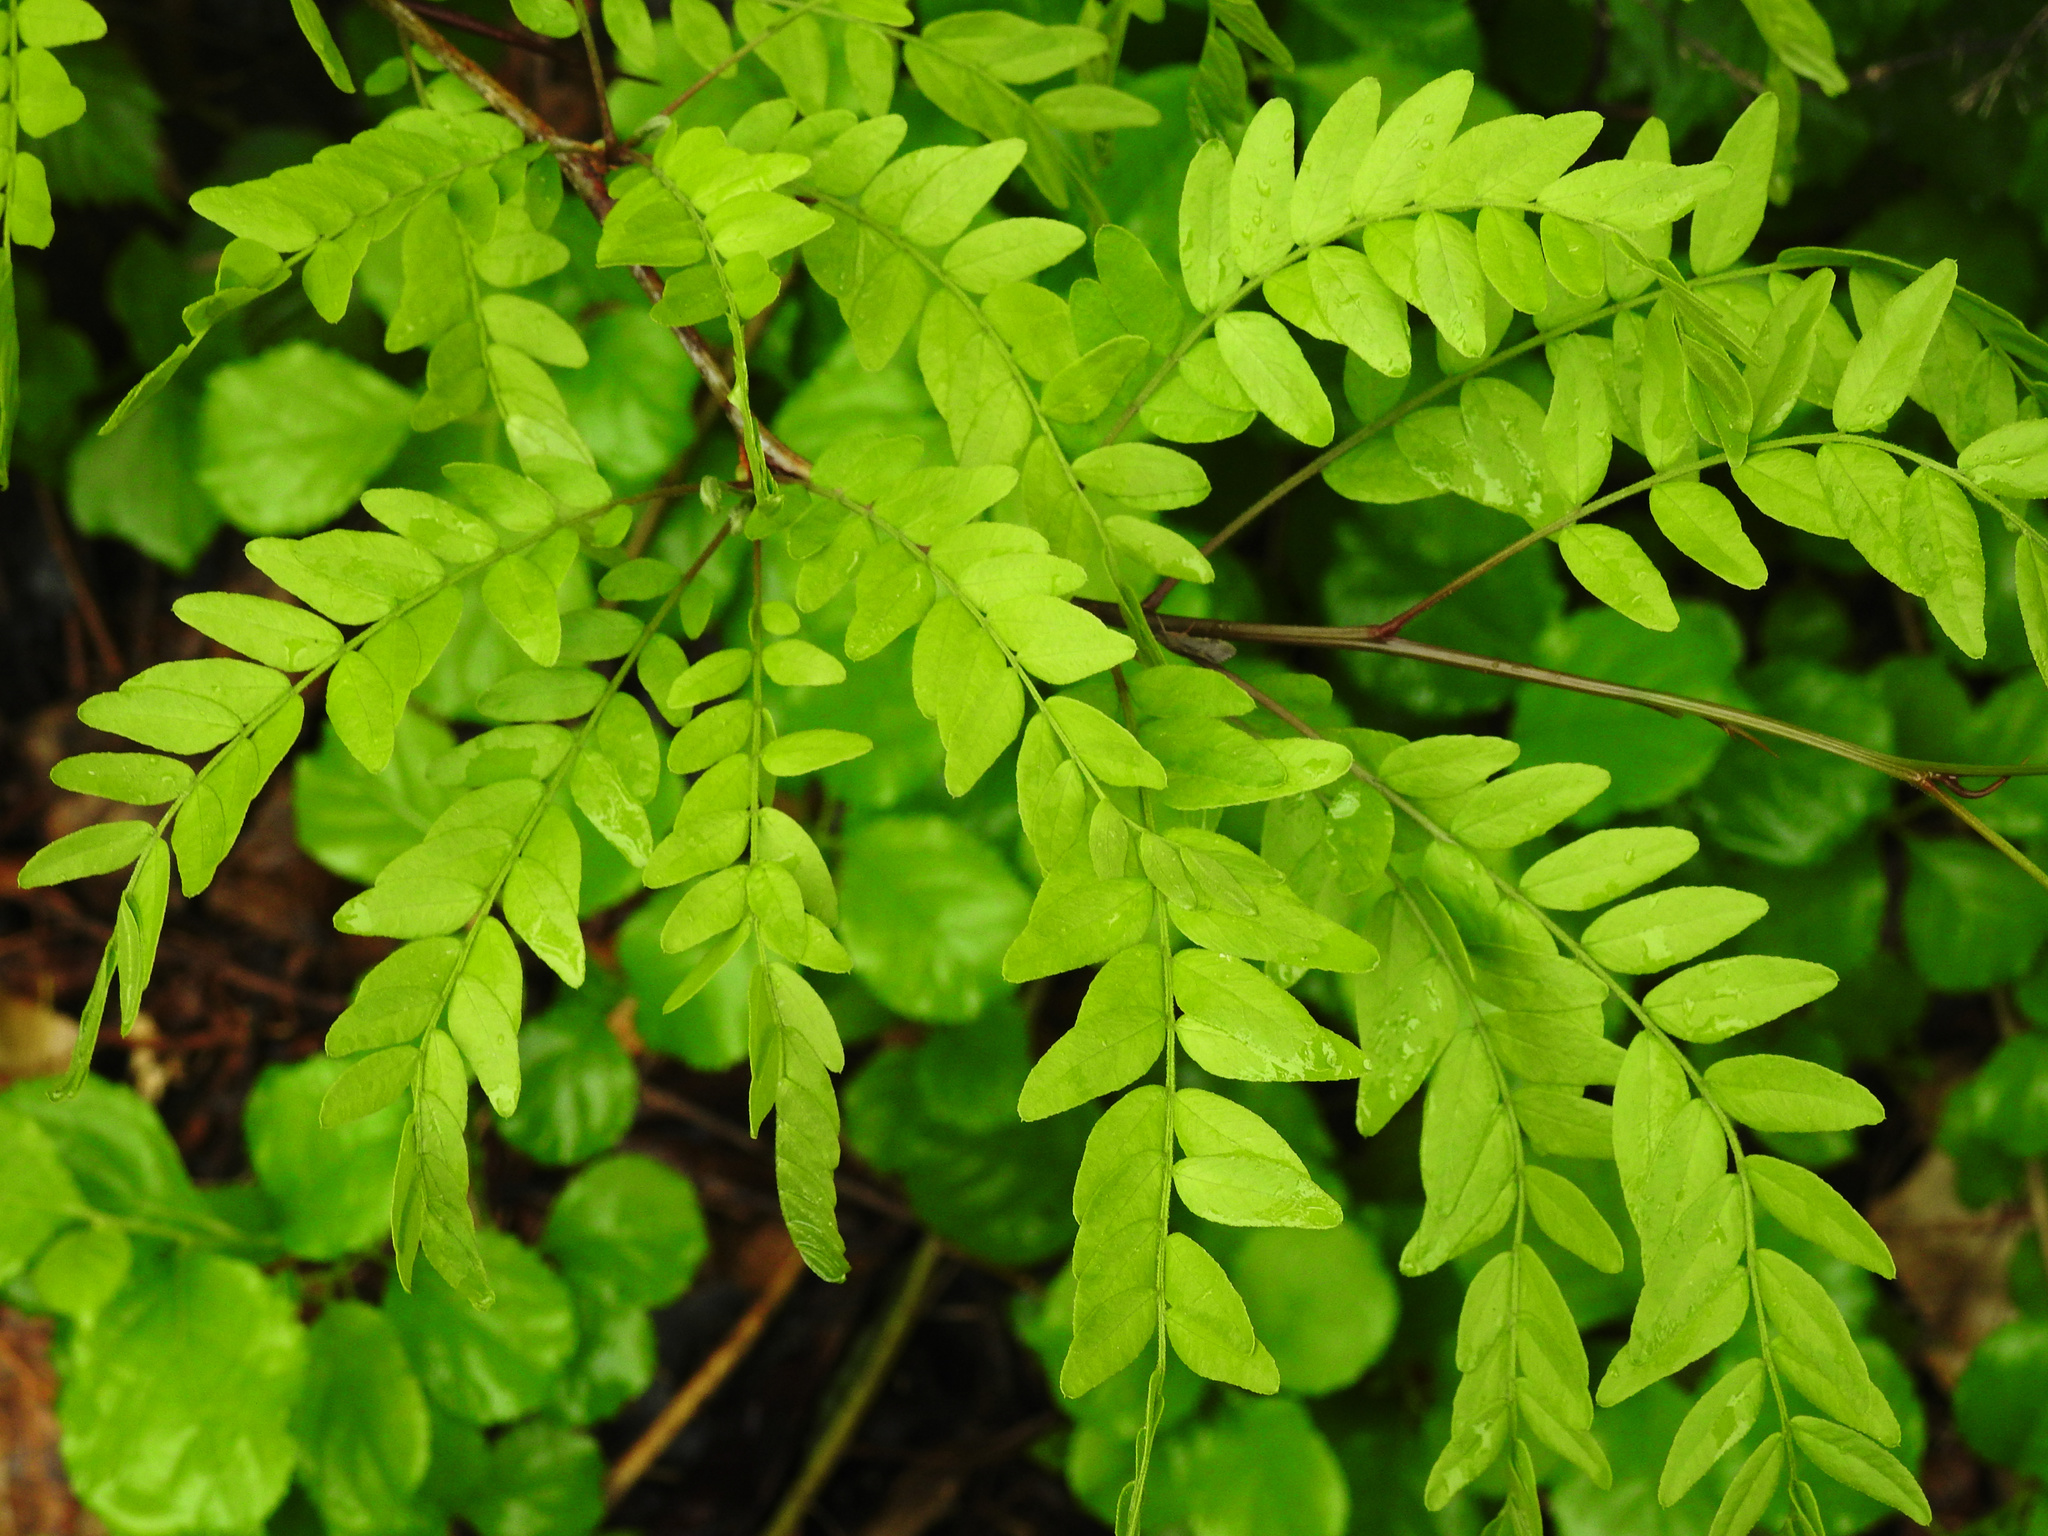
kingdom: Plantae
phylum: Tracheophyta
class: Magnoliopsida
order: Fabales
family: Fabaceae
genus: Gleditsia
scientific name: Gleditsia triacanthos
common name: Common honeylocust
